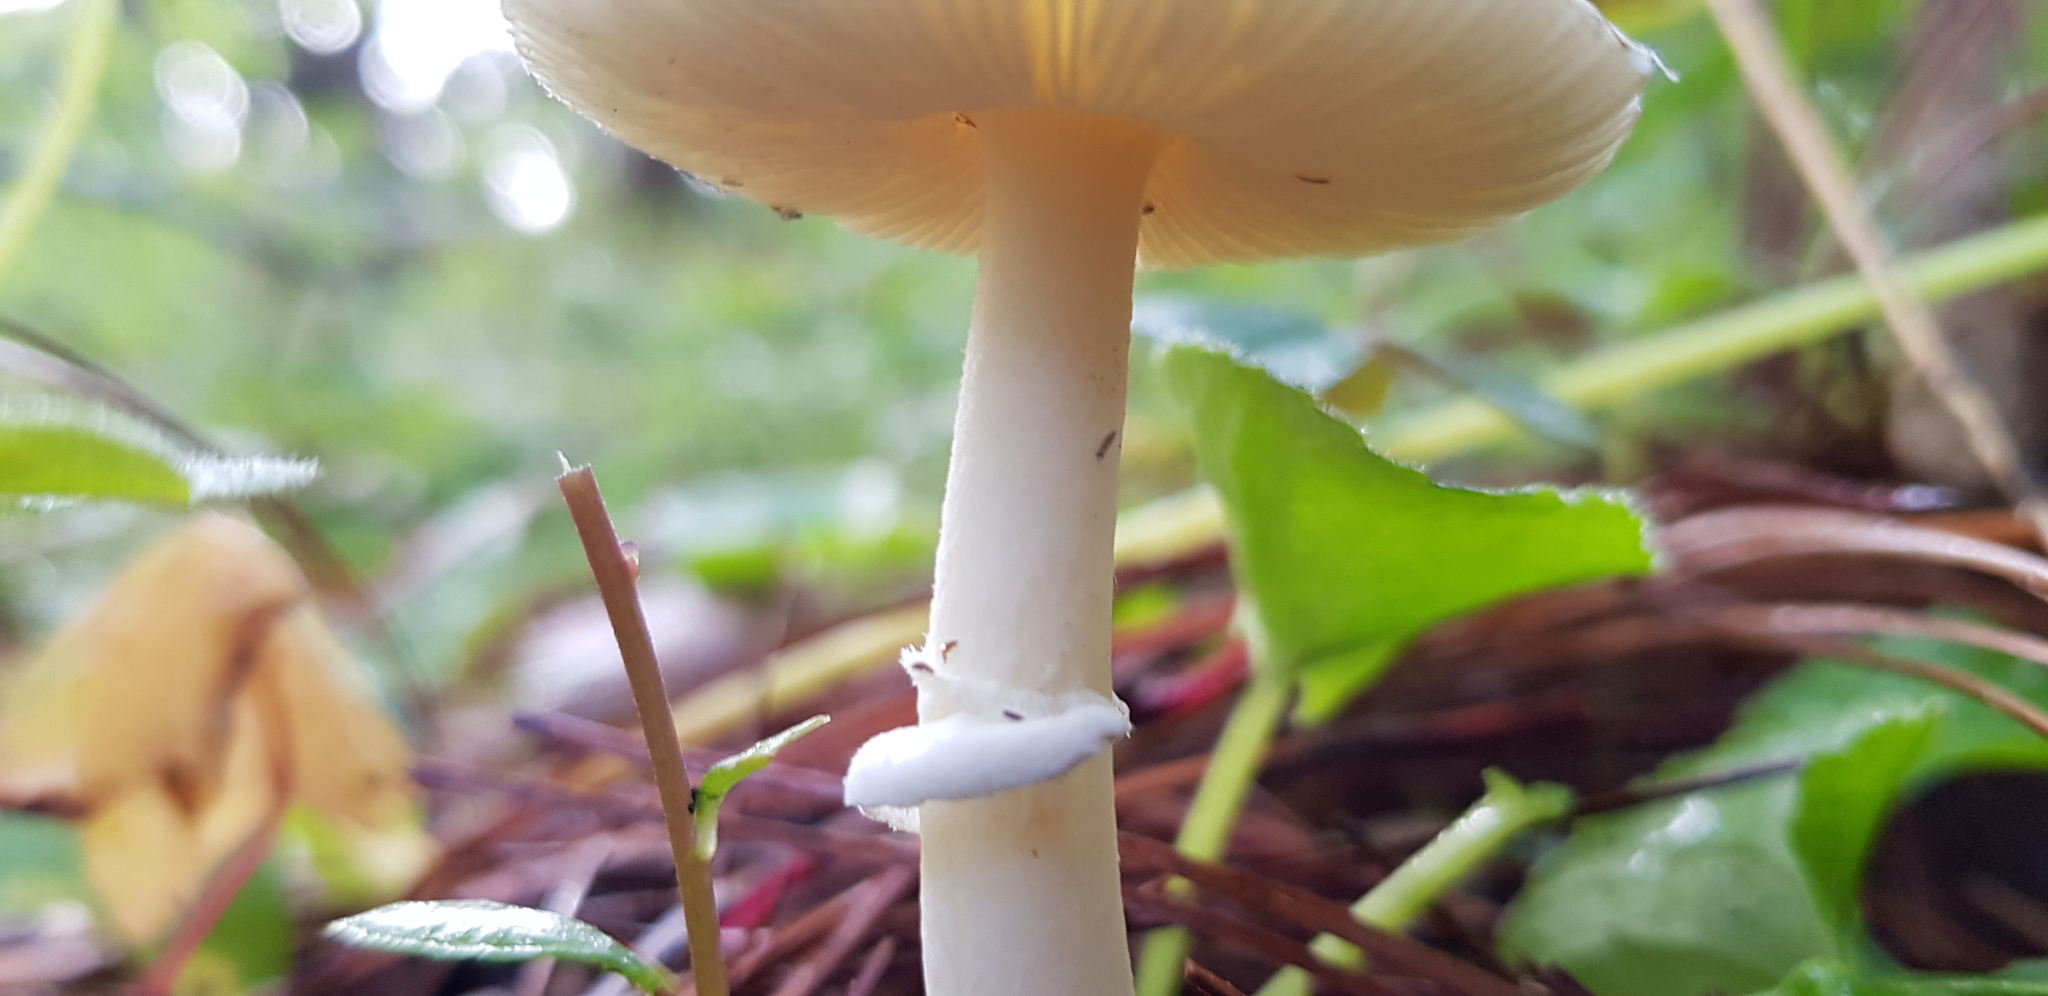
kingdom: Fungi
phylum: Basidiomycota
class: Agaricomycetes
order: Agaricales
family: Amanitaceae
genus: Amanita
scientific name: Amanita xylinivolva
